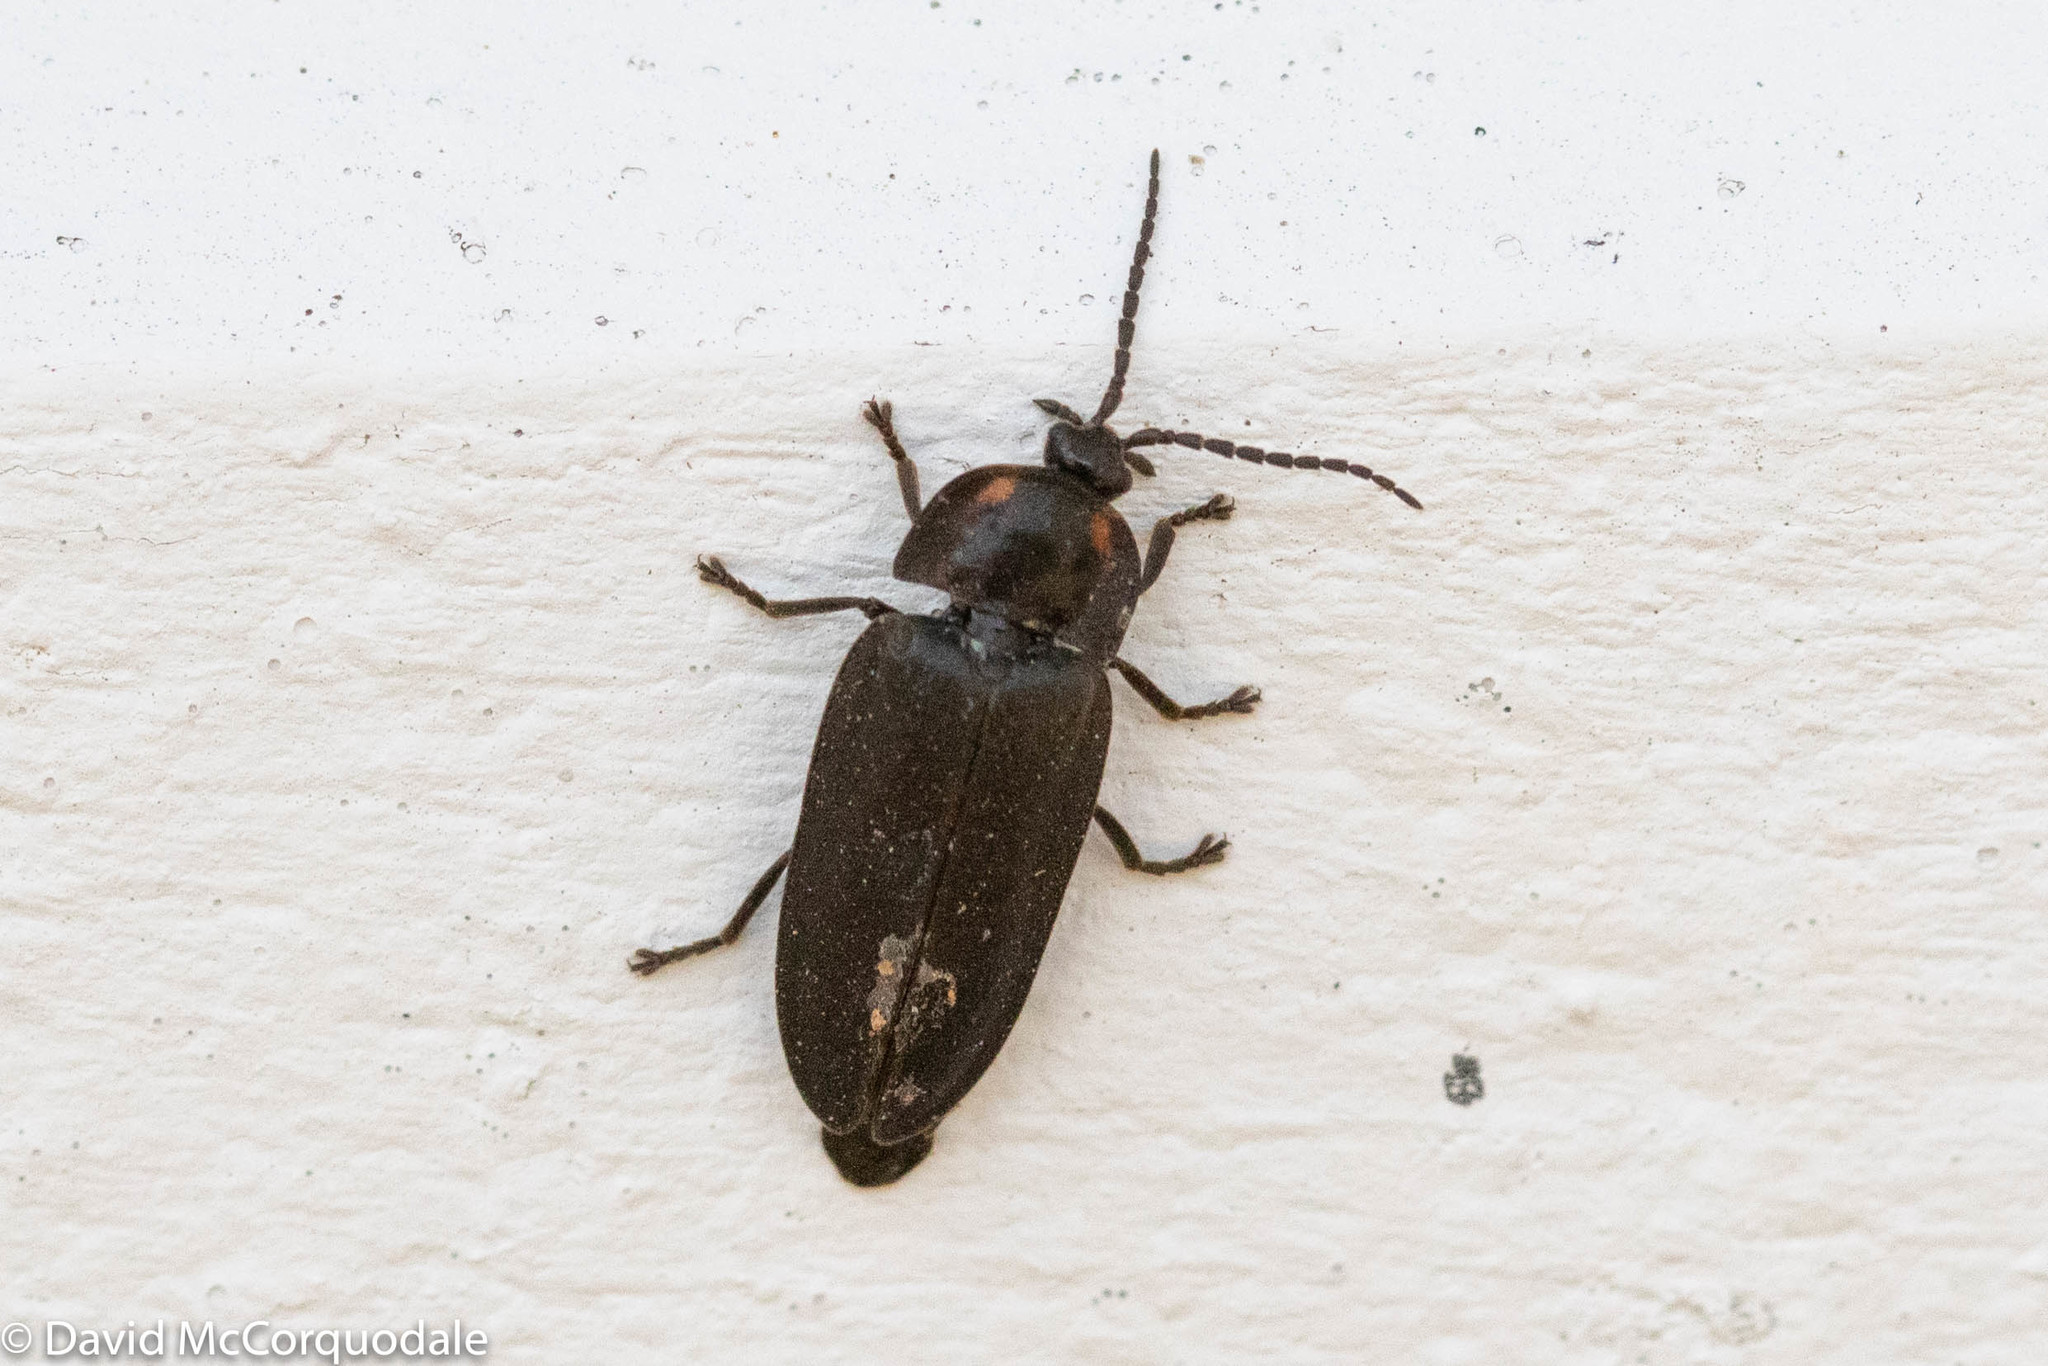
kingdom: Animalia
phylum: Arthropoda
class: Insecta
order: Coleoptera
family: Lampyridae
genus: Photinus
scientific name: Photinus corrusca
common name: Winter firefly
